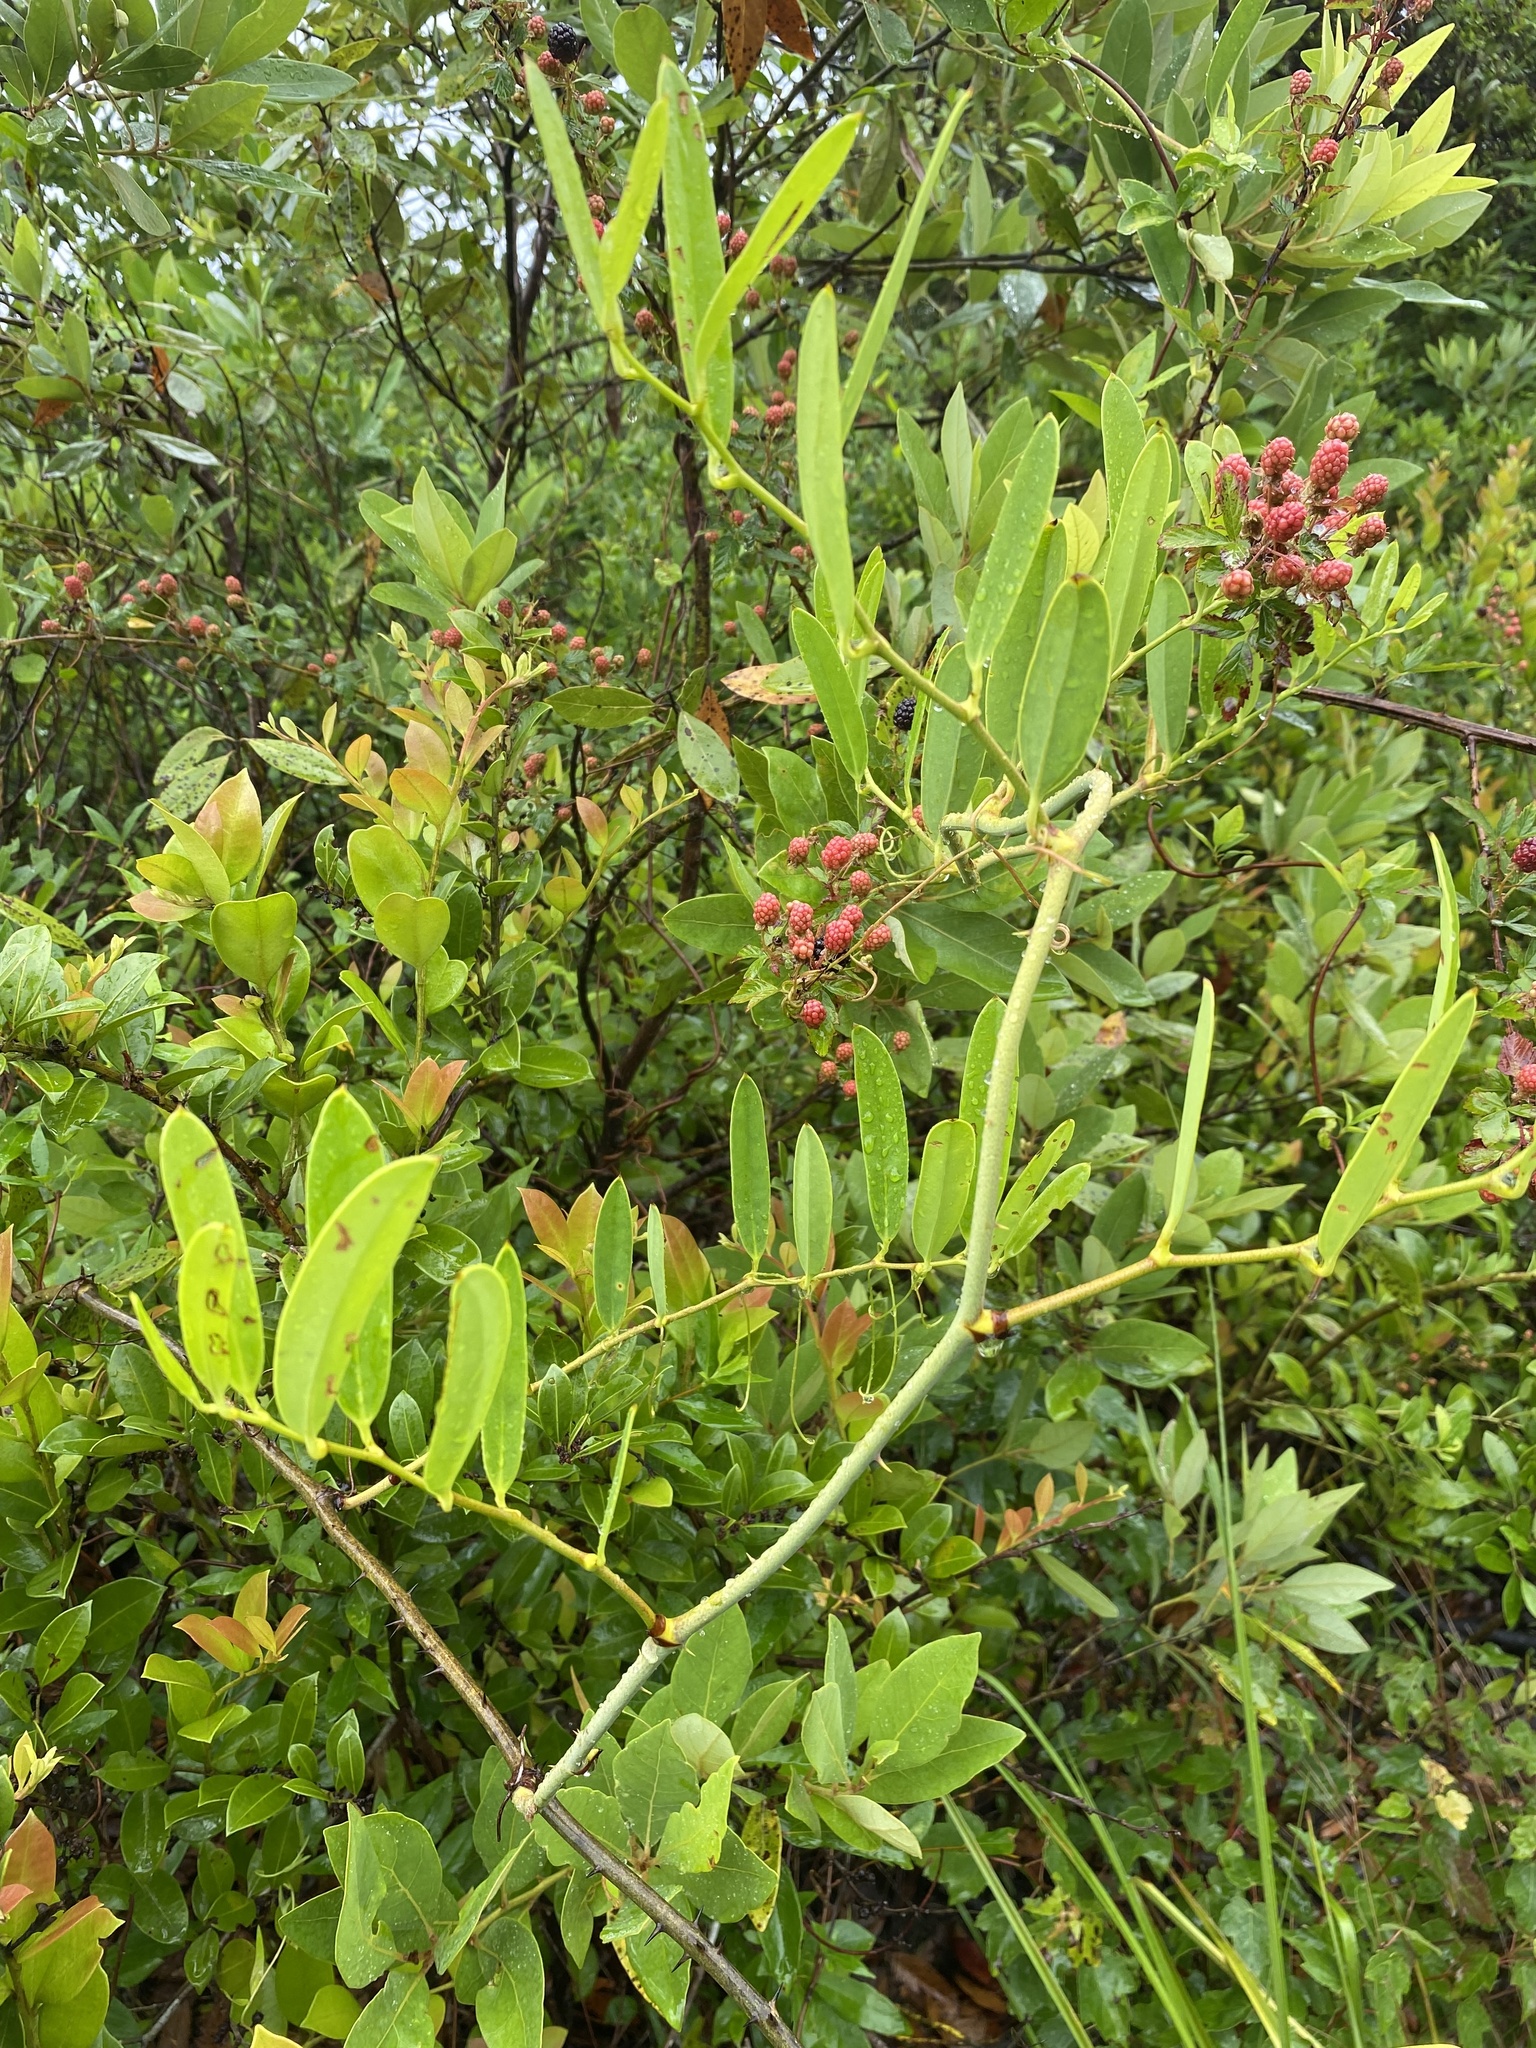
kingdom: Plantae
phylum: Tracheophyta
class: Liliopsida
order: Liliales
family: Smilacaceae
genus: Smilax
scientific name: Smilax laurifolia
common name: Bamboovine
